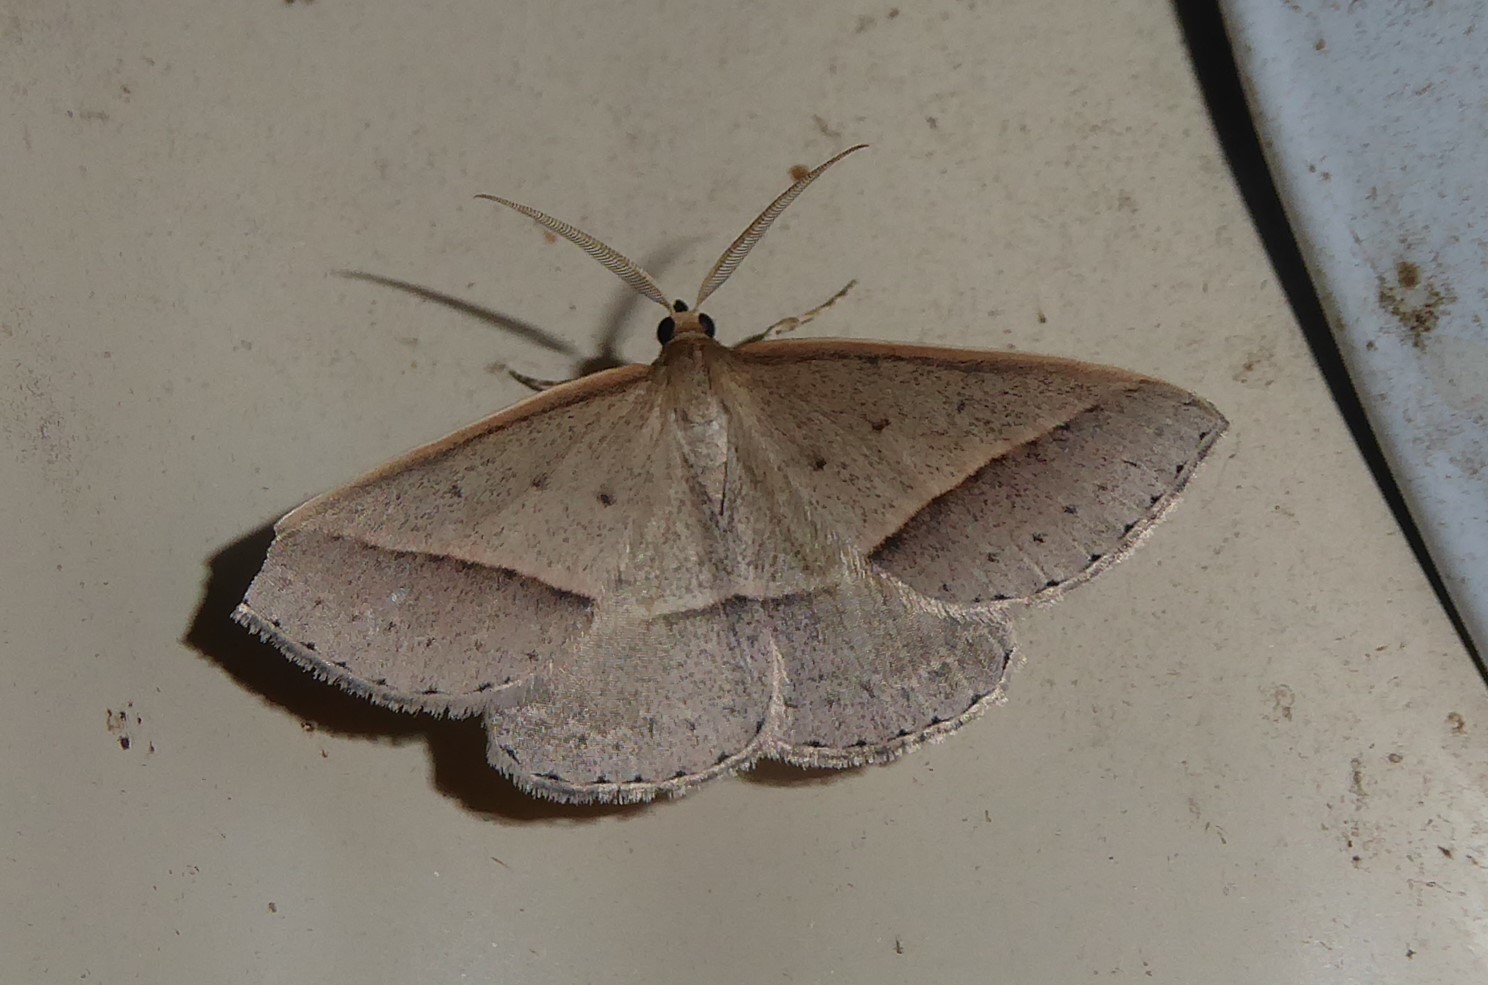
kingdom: Animalia
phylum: Arthropoda
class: Insecta
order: Lepidoptera
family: Geometridae
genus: Epidesmia
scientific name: Epidesmia tryxaria
